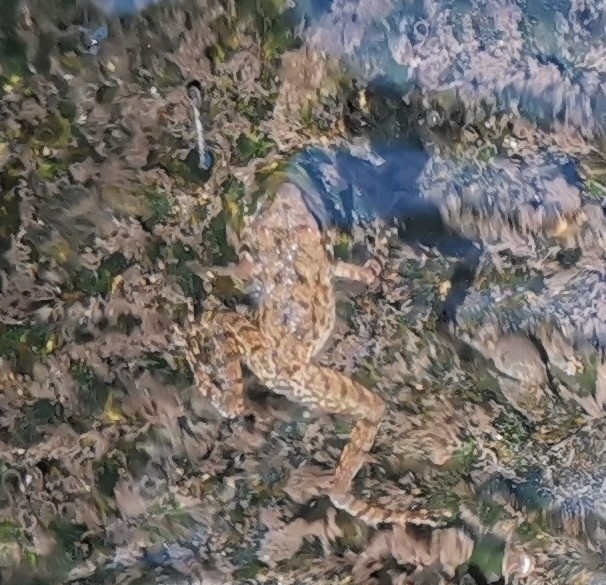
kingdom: Animalia
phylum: Chordata
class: Amphibia
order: Anura
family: Ranidae
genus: Rana
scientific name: Rana italica
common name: Italian stream frog
